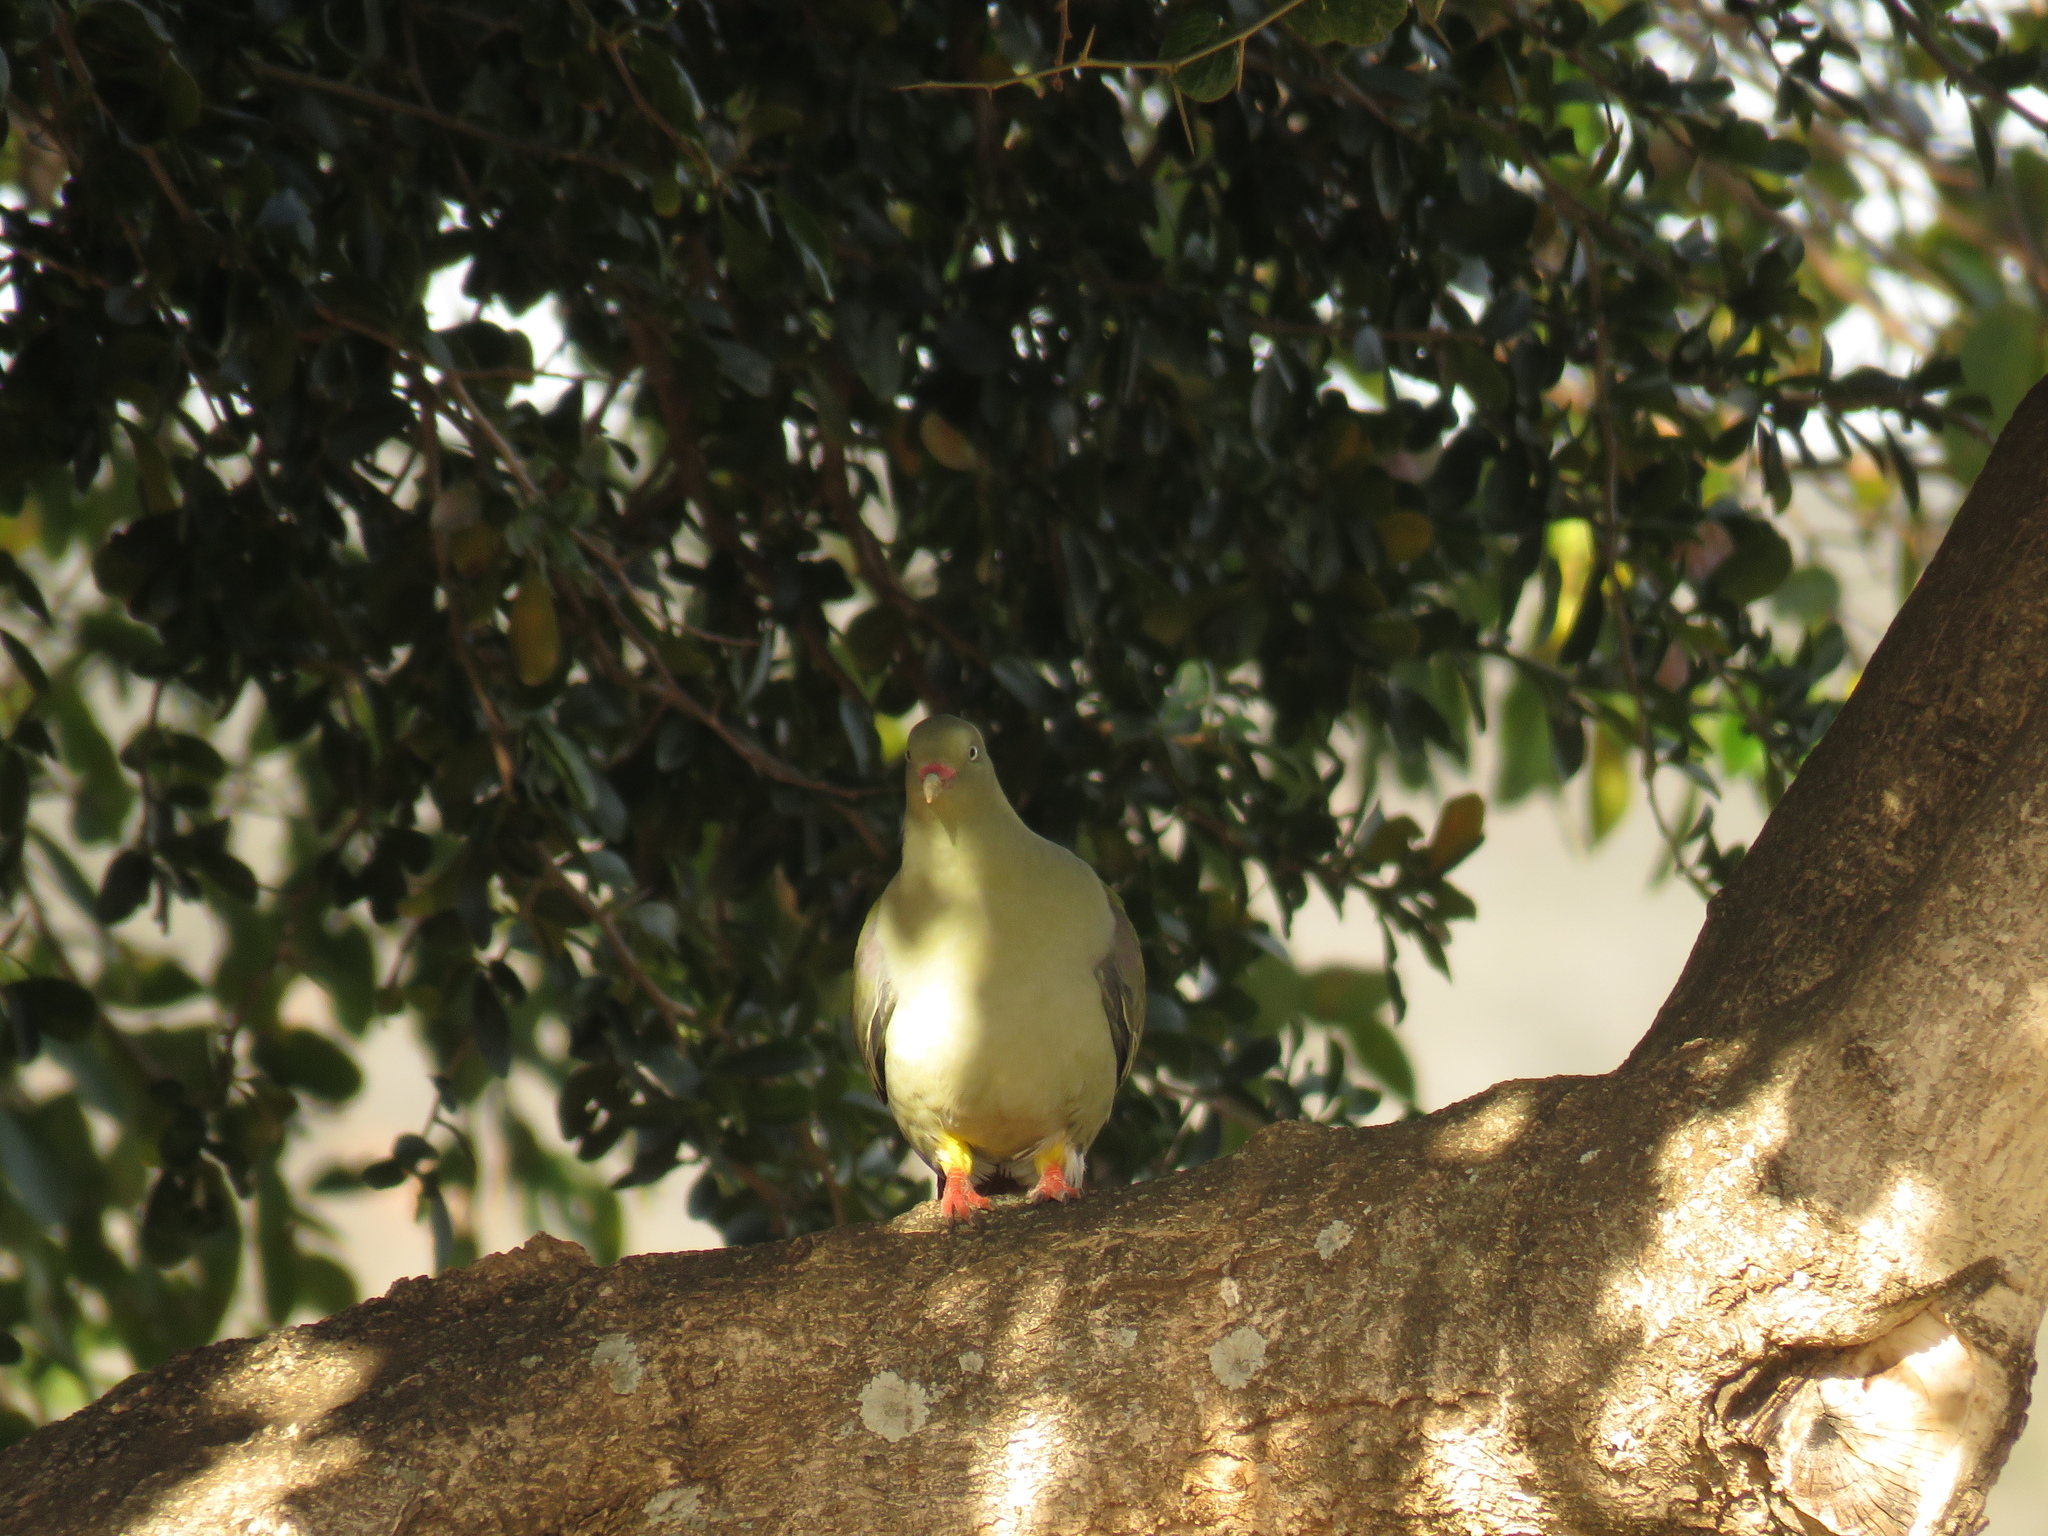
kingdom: Animalia
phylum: Chordata
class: Aves
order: Columbiformes
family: Columbidae
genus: Treron
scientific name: Treron calvus
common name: African green pigeon
